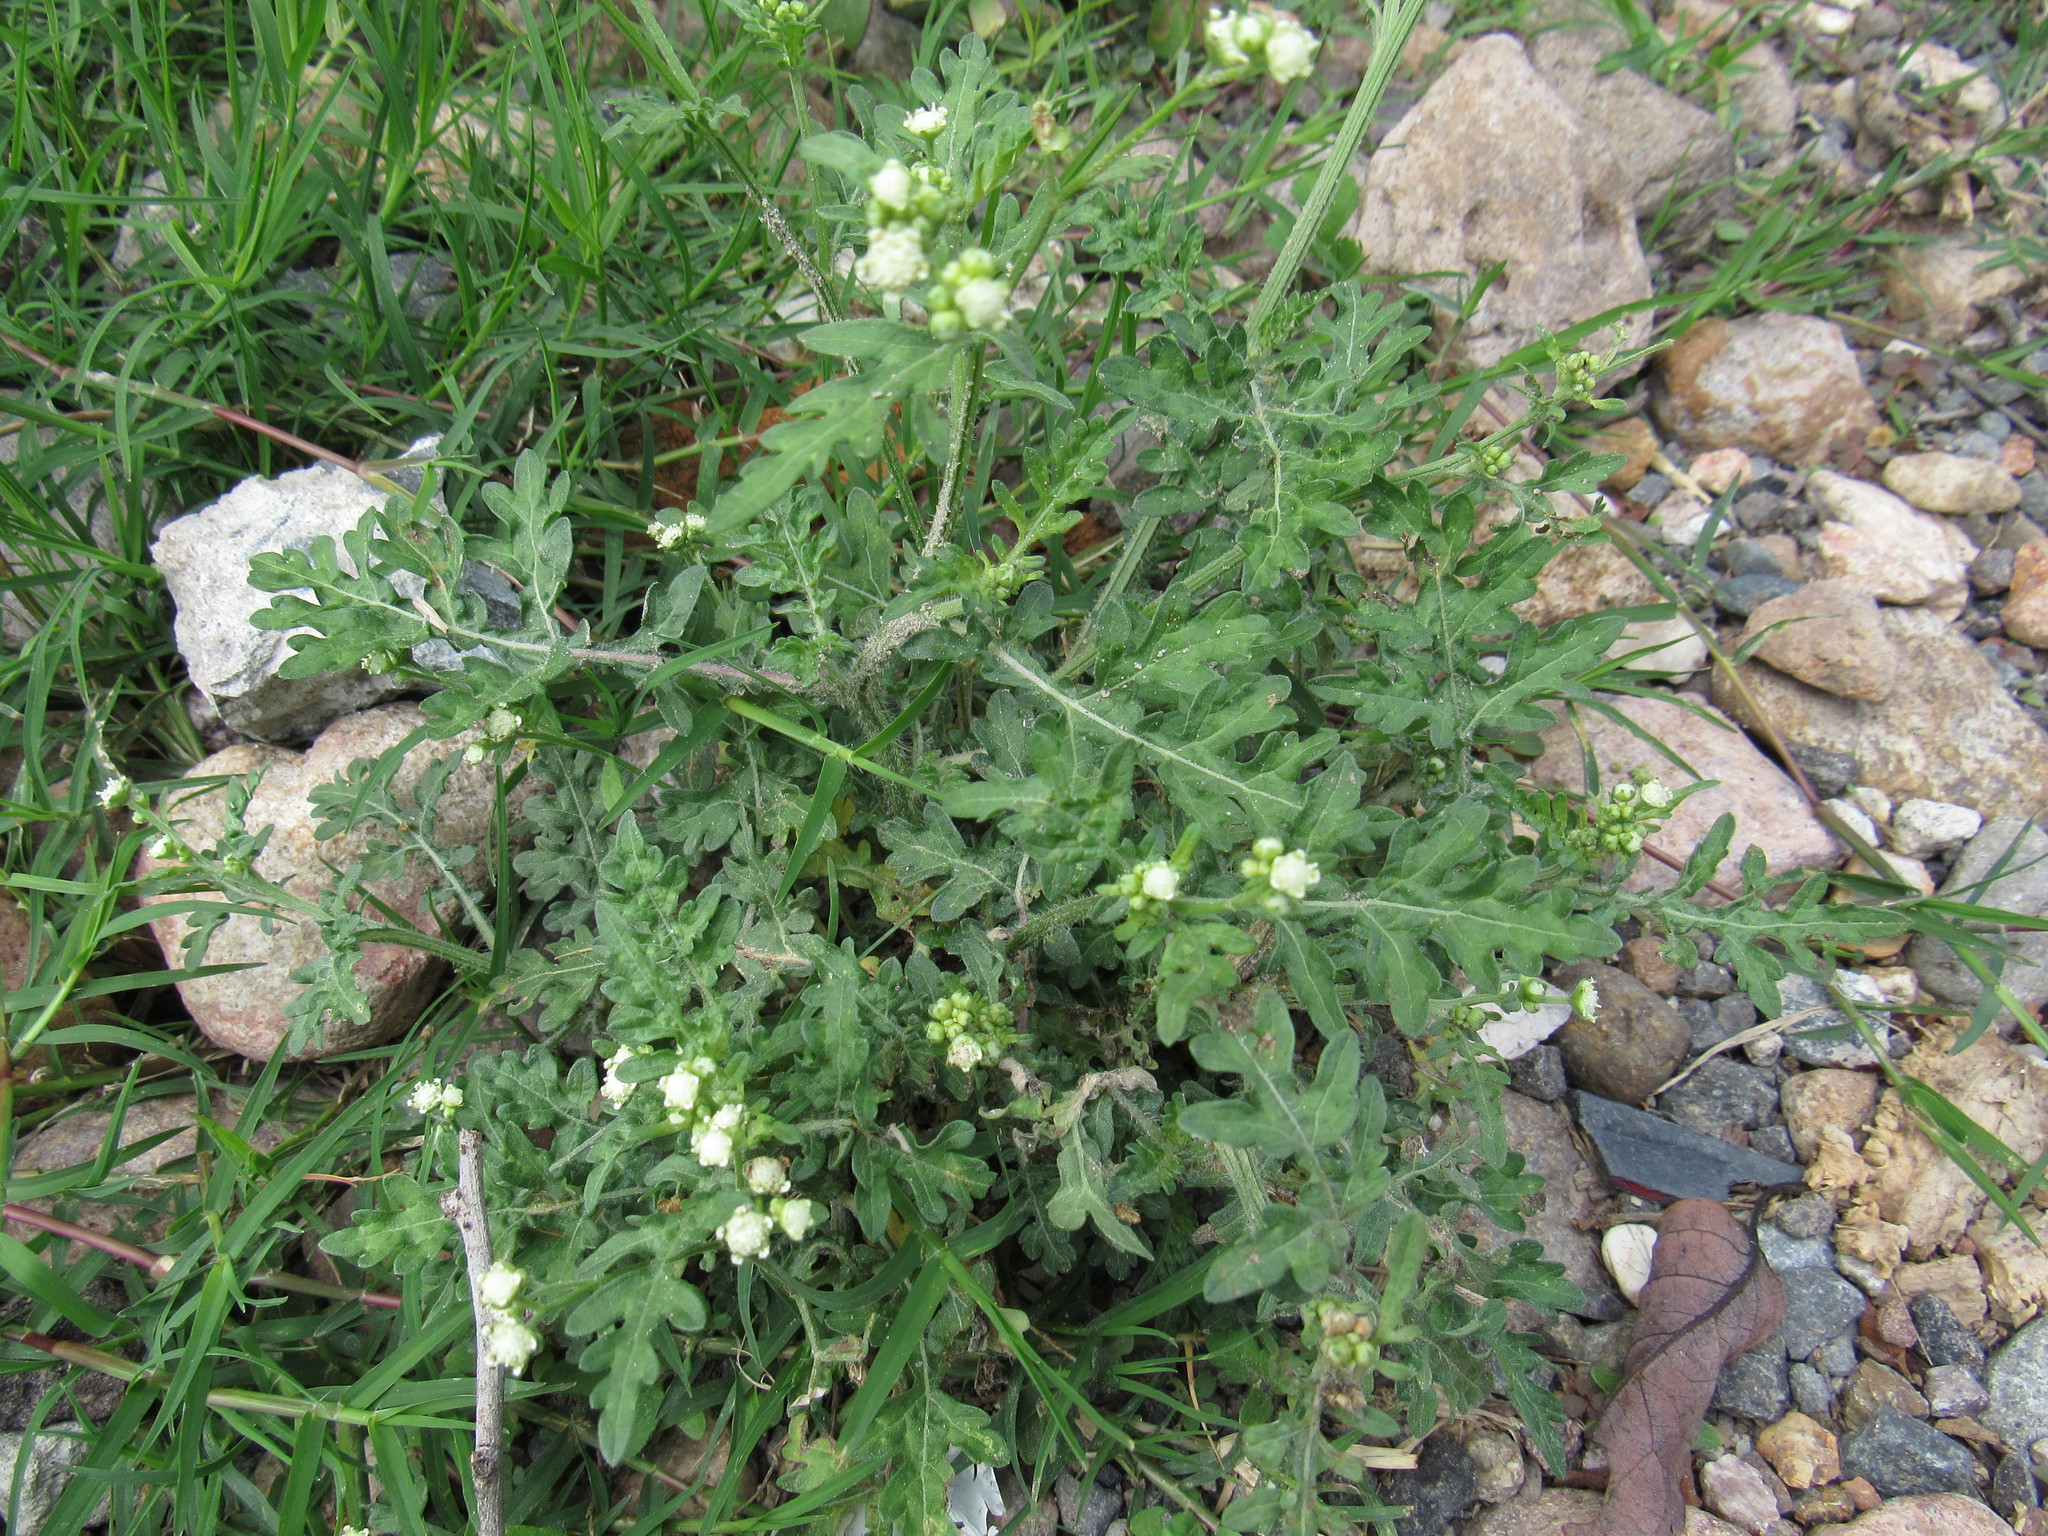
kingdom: Plantae
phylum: Tracheophyta
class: Magnoliopsida
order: Asterales
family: Asteraceae
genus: Parthenium
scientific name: Parthenium hysterophorus
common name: Santa maria feverfew
